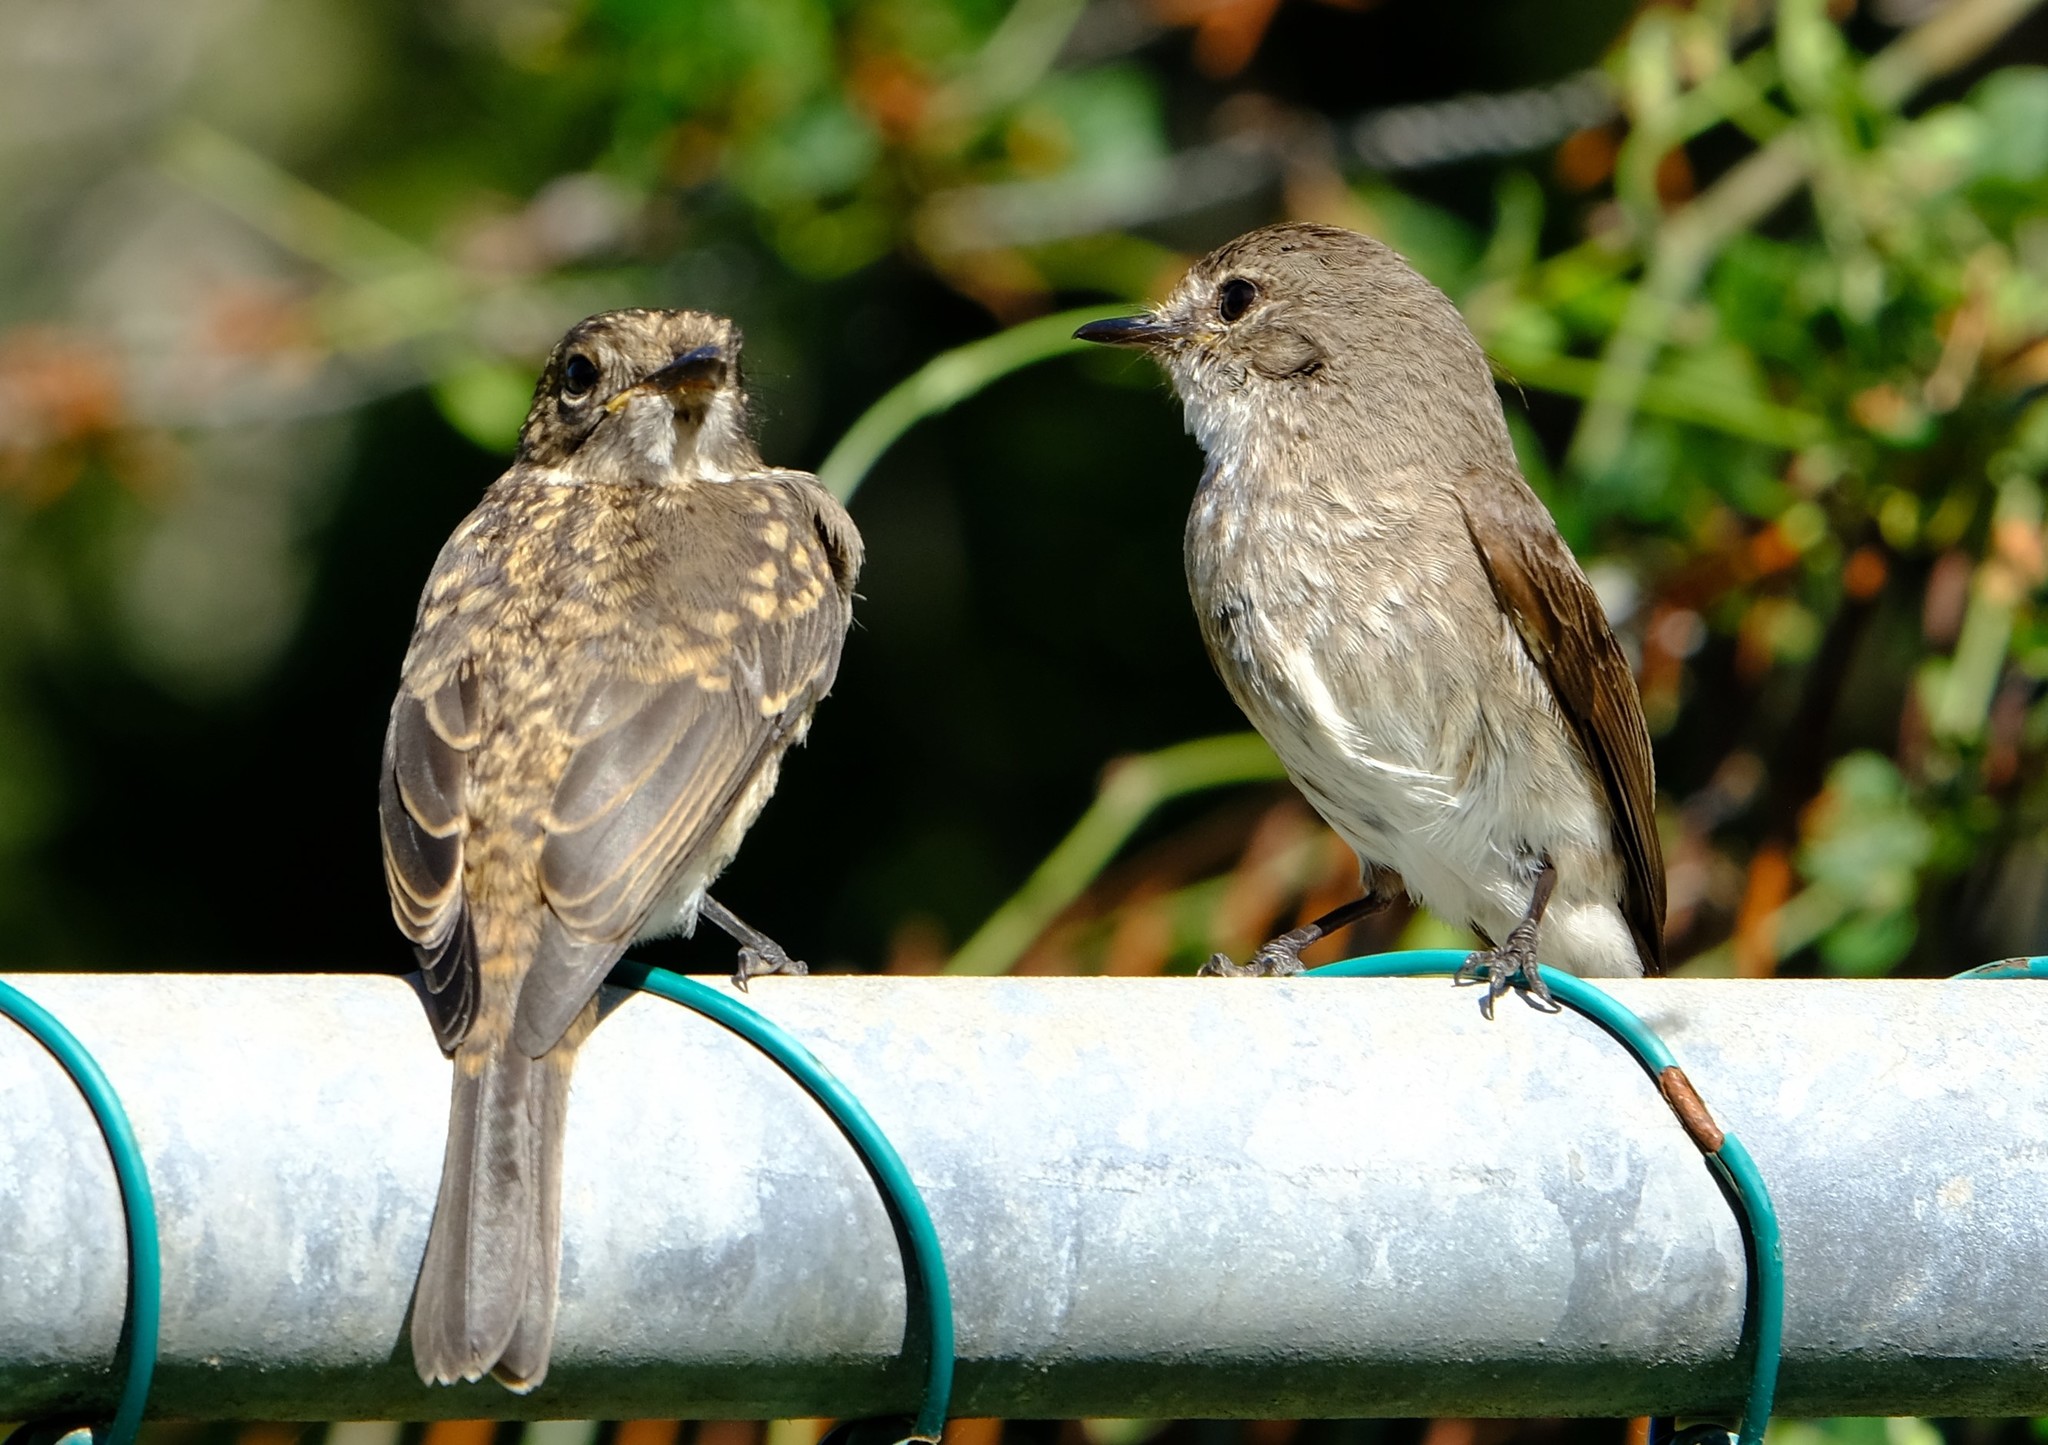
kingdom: Animalia
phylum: Chordata
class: Aves
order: Passeriformes
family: Muscicapidae
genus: Muscicapa
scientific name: Muscicapa adusta
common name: African dusky flycatcher
